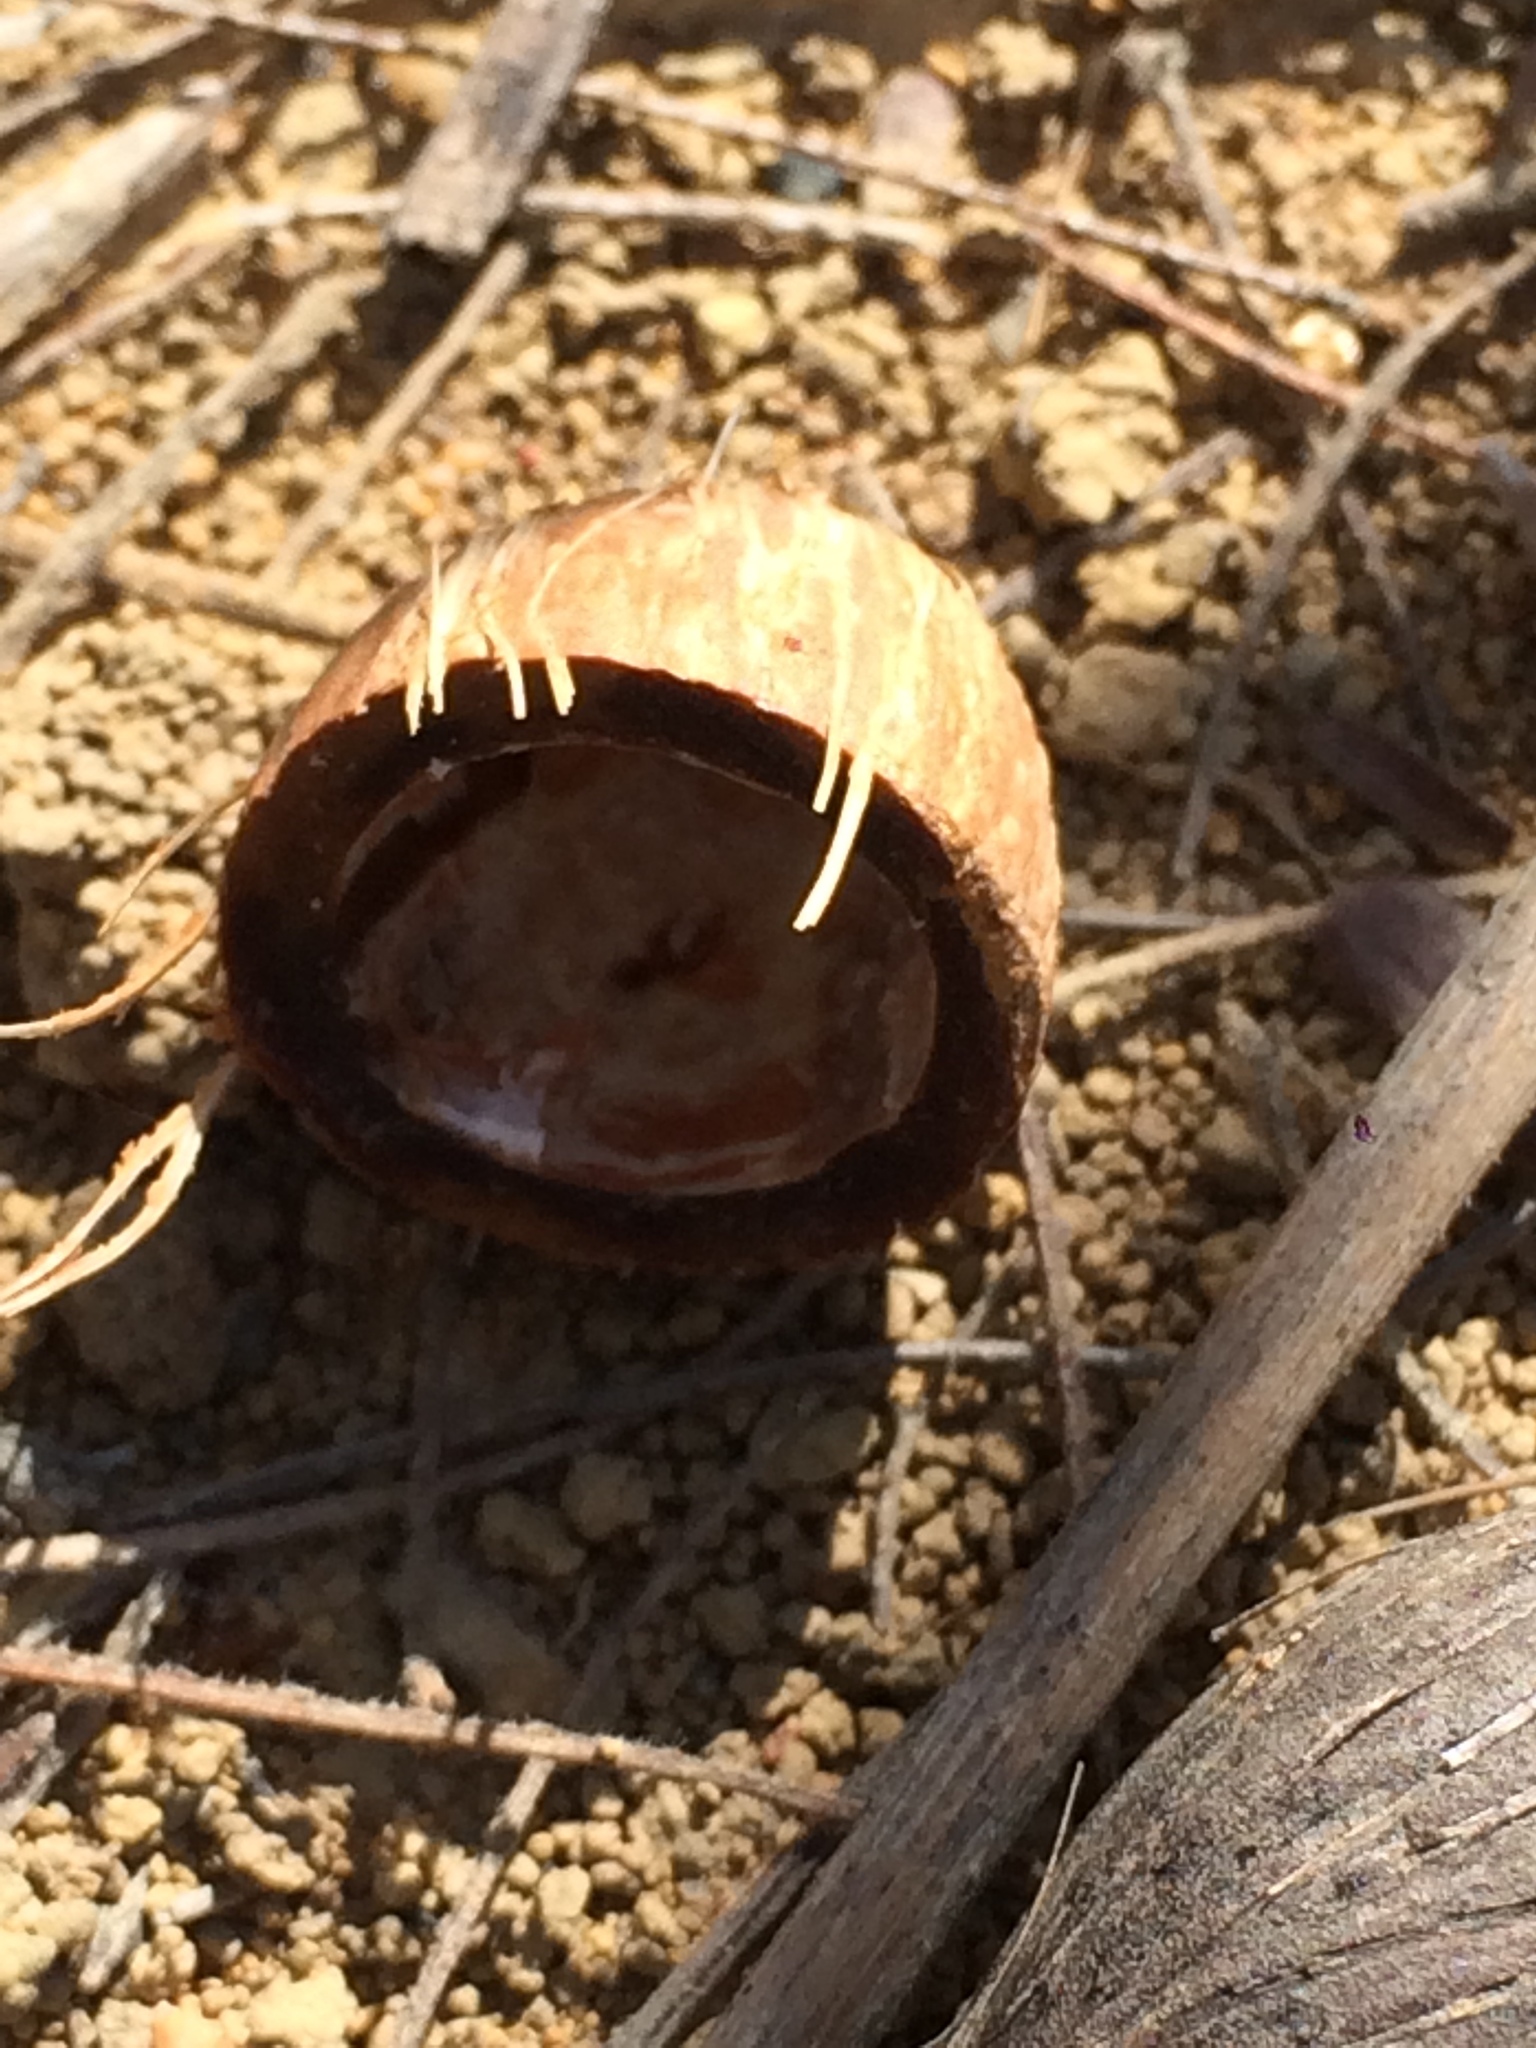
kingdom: Plantae
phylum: Tracheophyta
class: Liliopsida
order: Arecales
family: Arecaceae
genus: Syagrus
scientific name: Syagrus coronata
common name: Licuri palm
